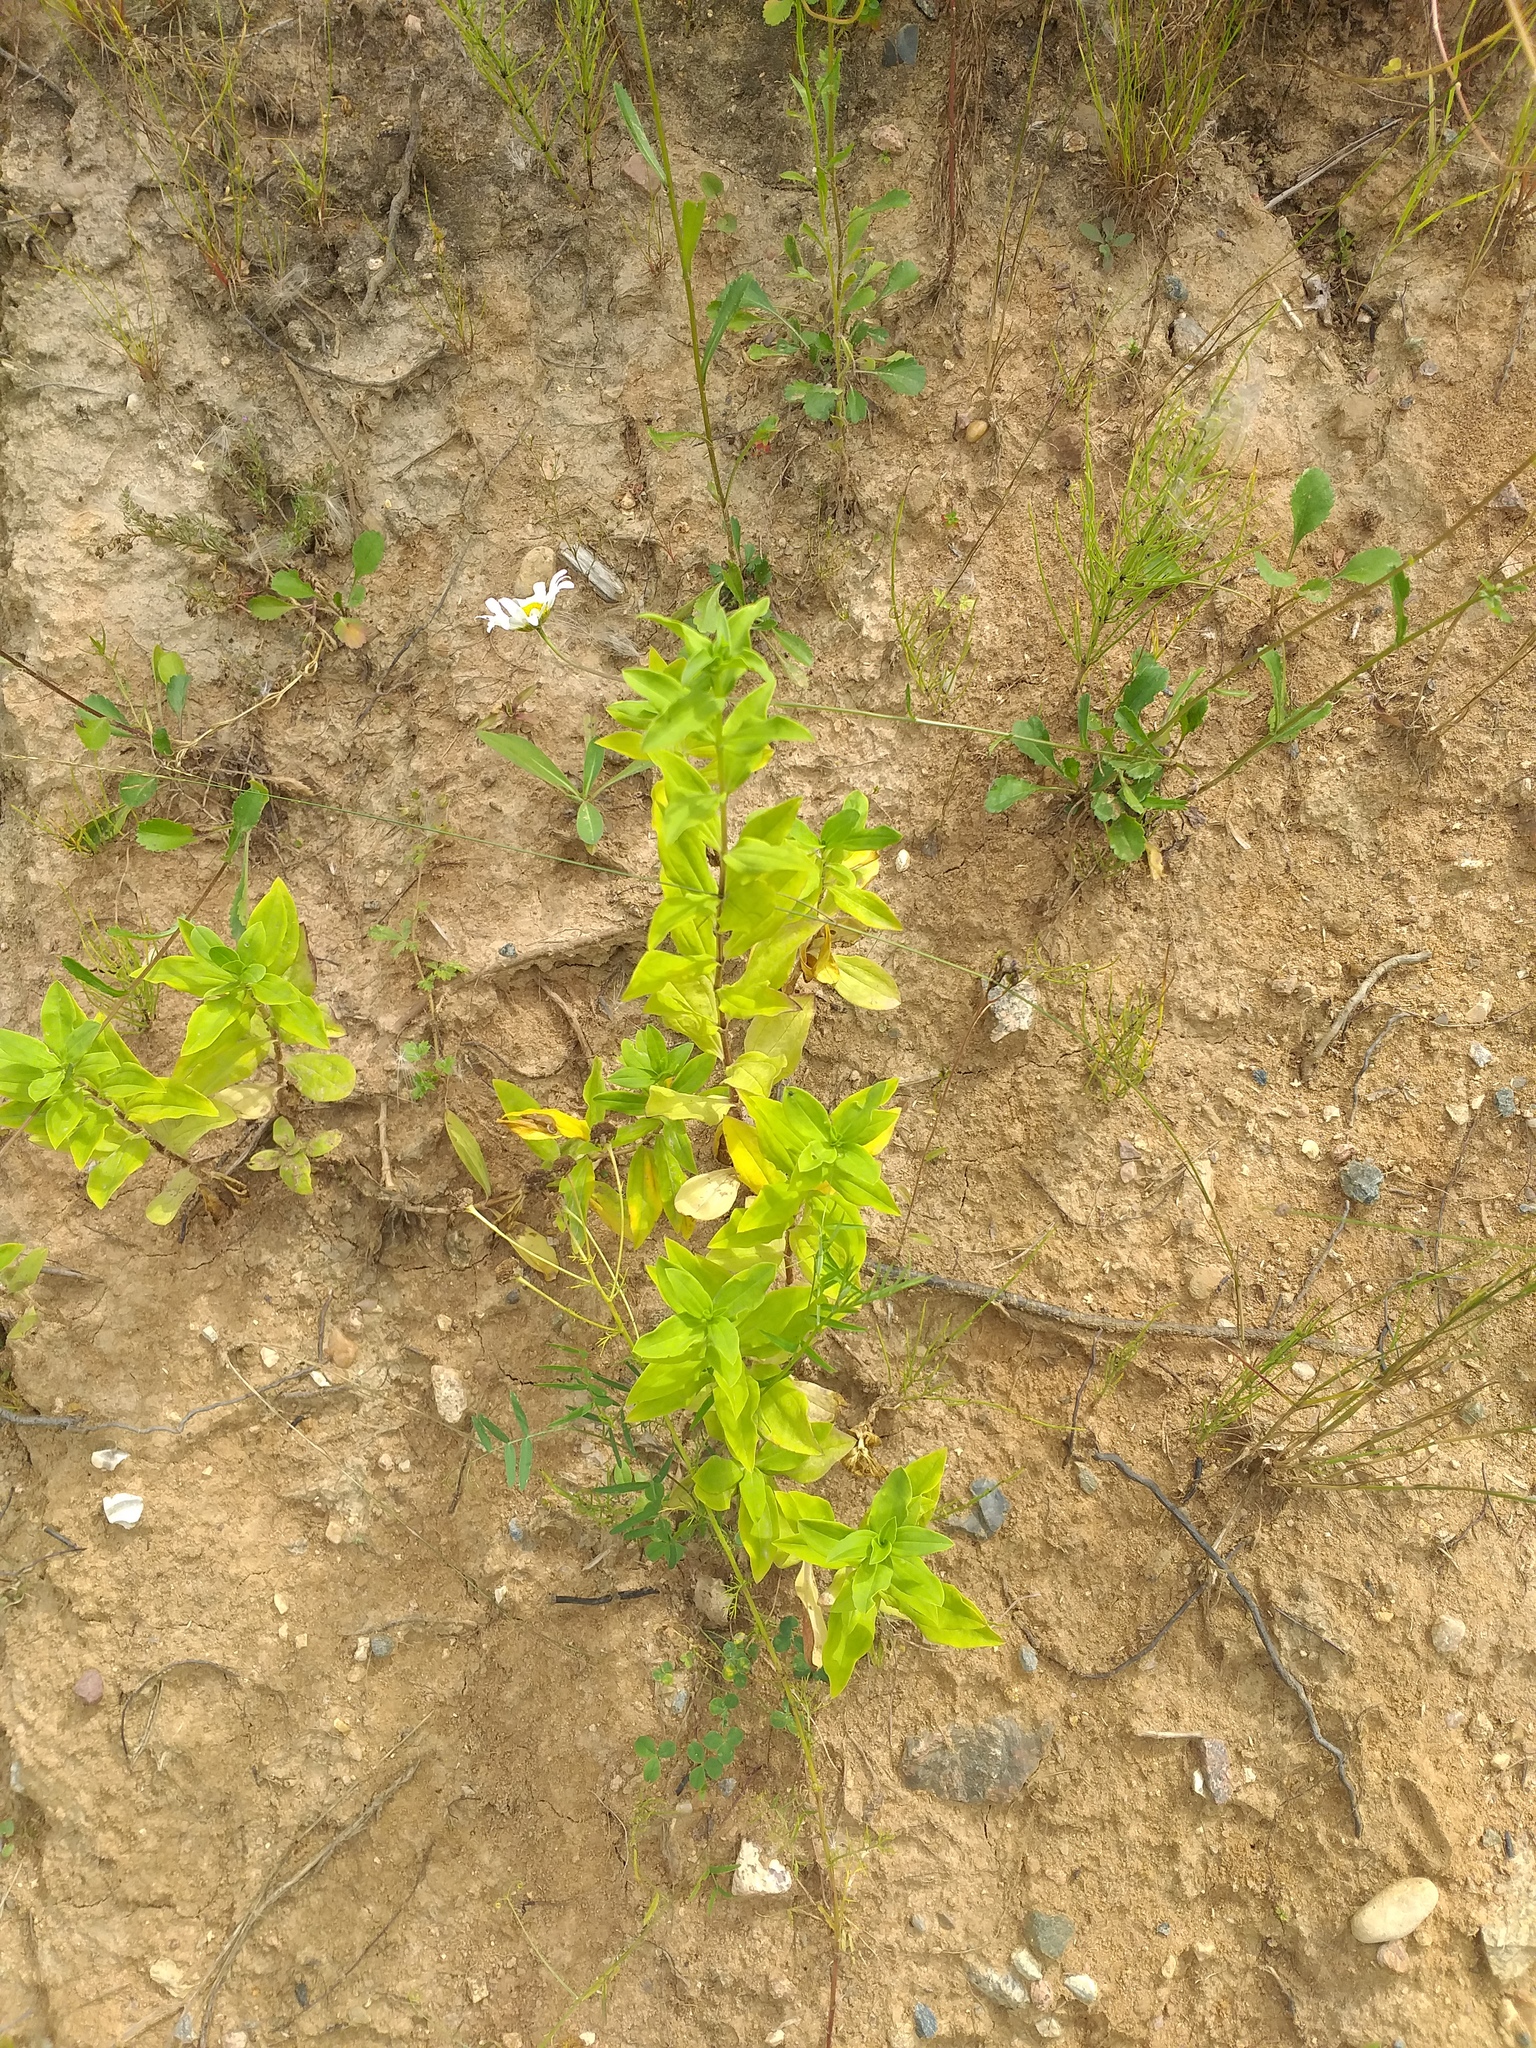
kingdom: Plantae
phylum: Tracheophyta
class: Magnoliopsida
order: Caryophyllales
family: Caryophyllaceae
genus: Saponaria
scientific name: Saponaria officinalis
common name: Soapwort
